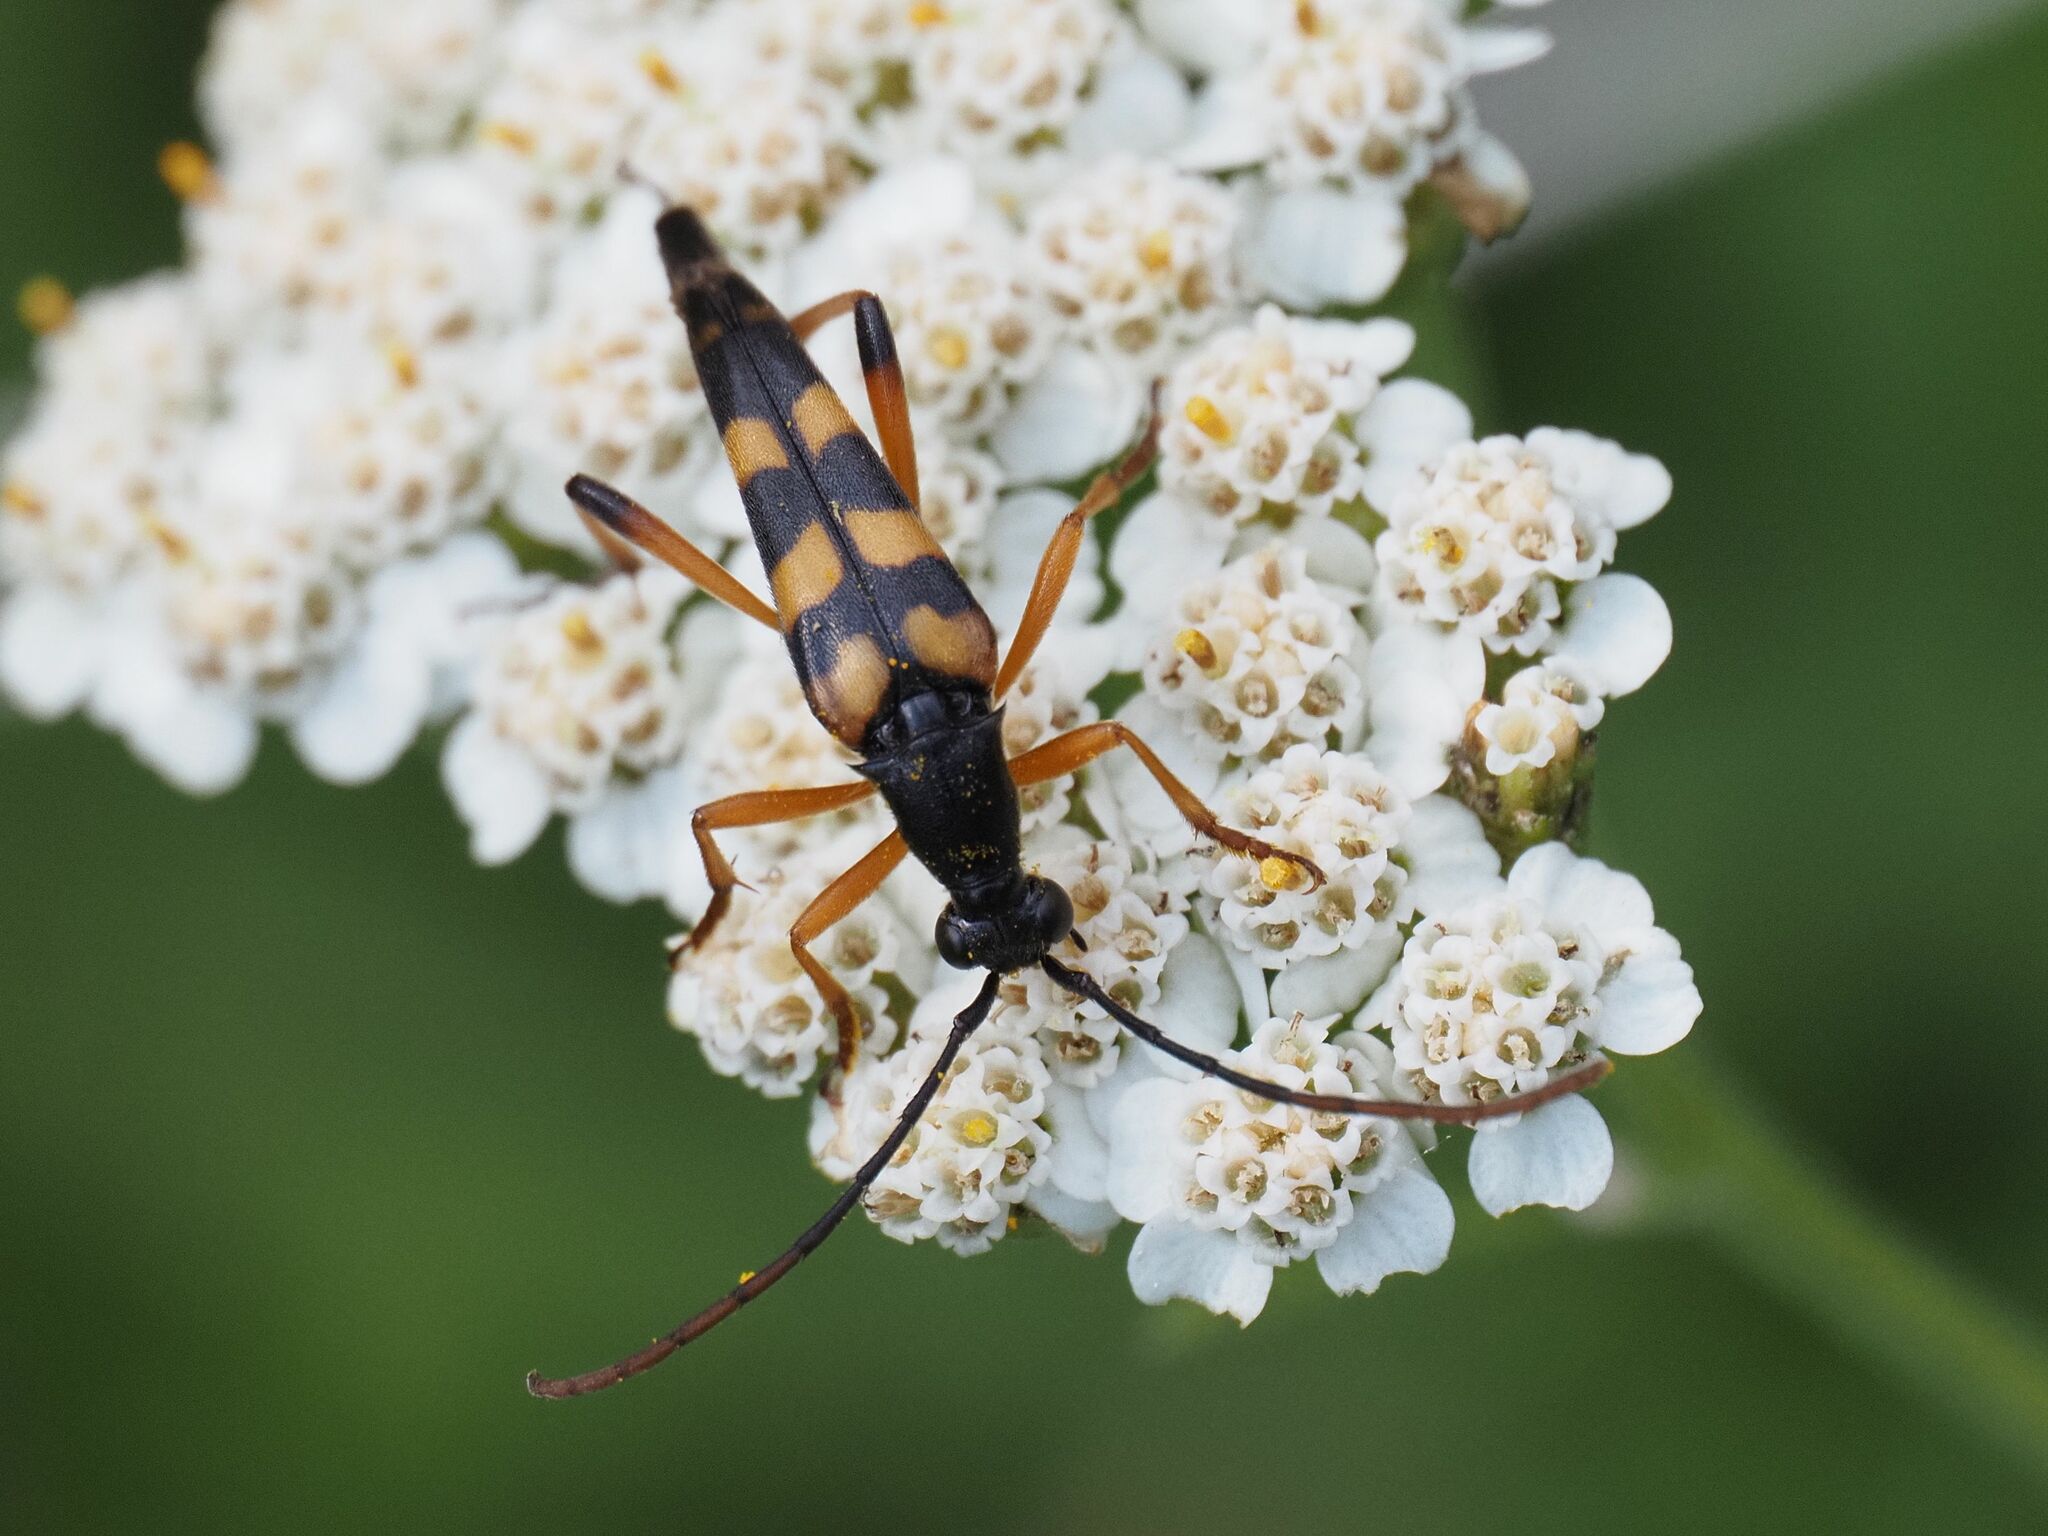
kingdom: Animalia
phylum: Arthropoda
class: Insecta
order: Coleoptera
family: Cerambycidae
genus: Strangalia
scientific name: Strangalia attenuata
